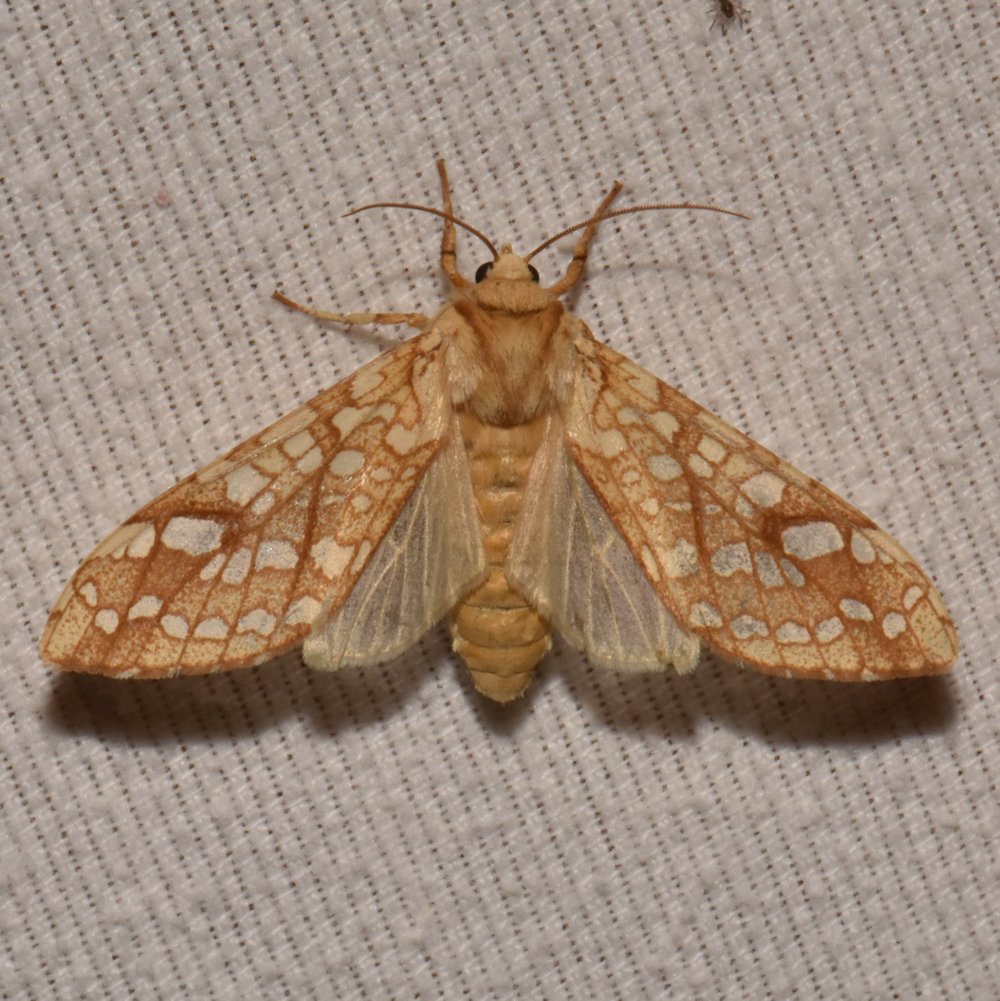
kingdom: Animalia
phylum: Arthropoda
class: Insecta
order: Lepidoptera
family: Erebidae
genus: Lophocampa
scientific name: Lophocampa caryae
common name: Hickory tussock moth
